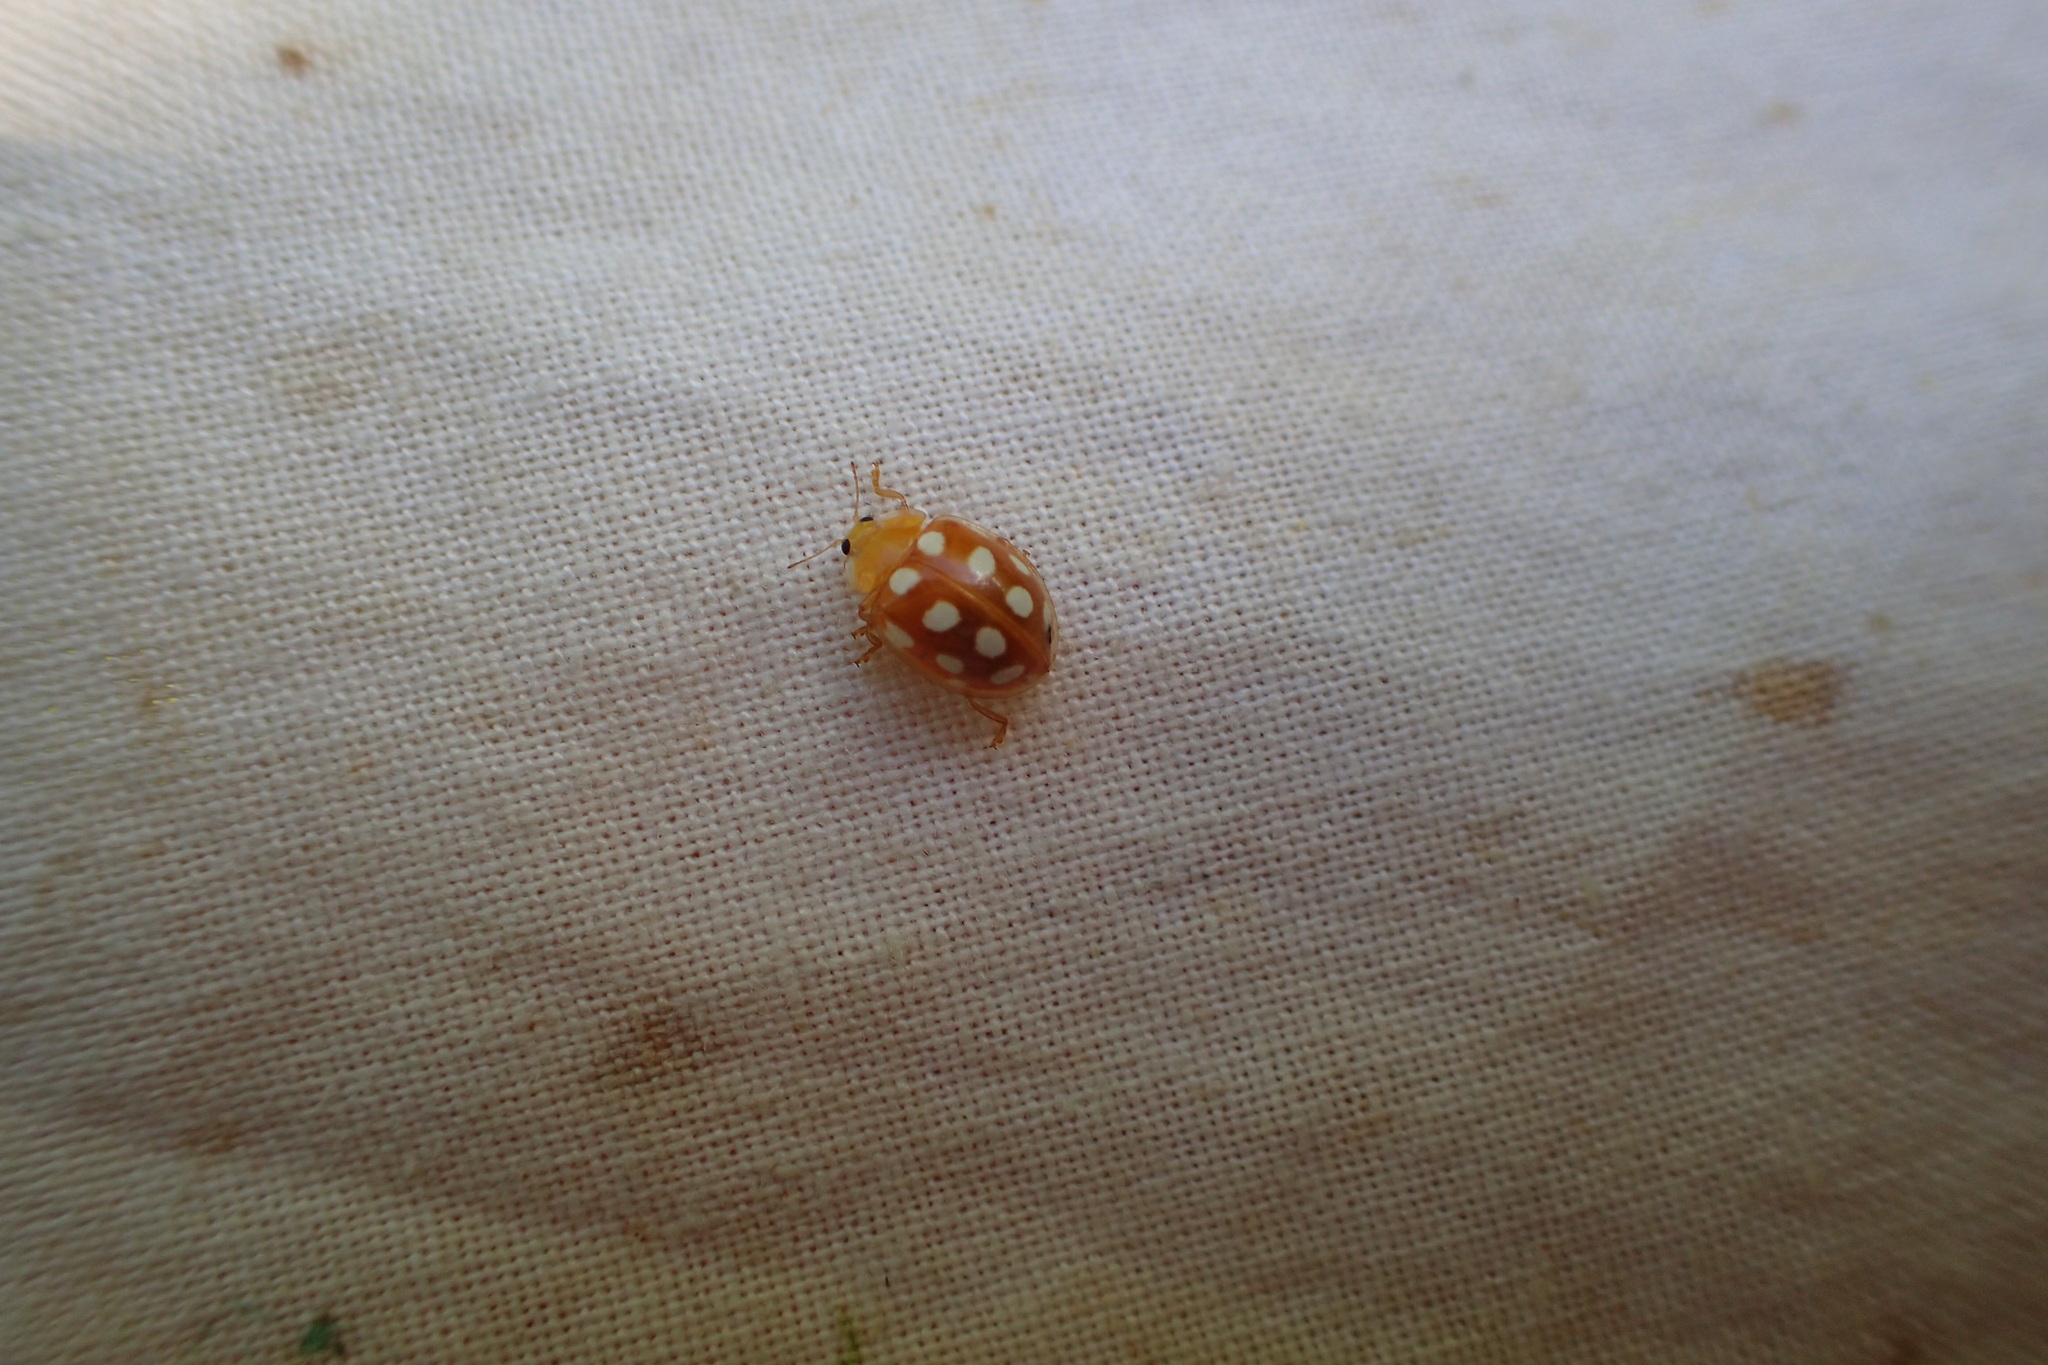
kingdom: Animalia
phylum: Arthropoda
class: Insecta
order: Coleoptera
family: Coccinellidae
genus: Halyzia
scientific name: Halyzia sedecimguttata
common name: Orange ladybird
